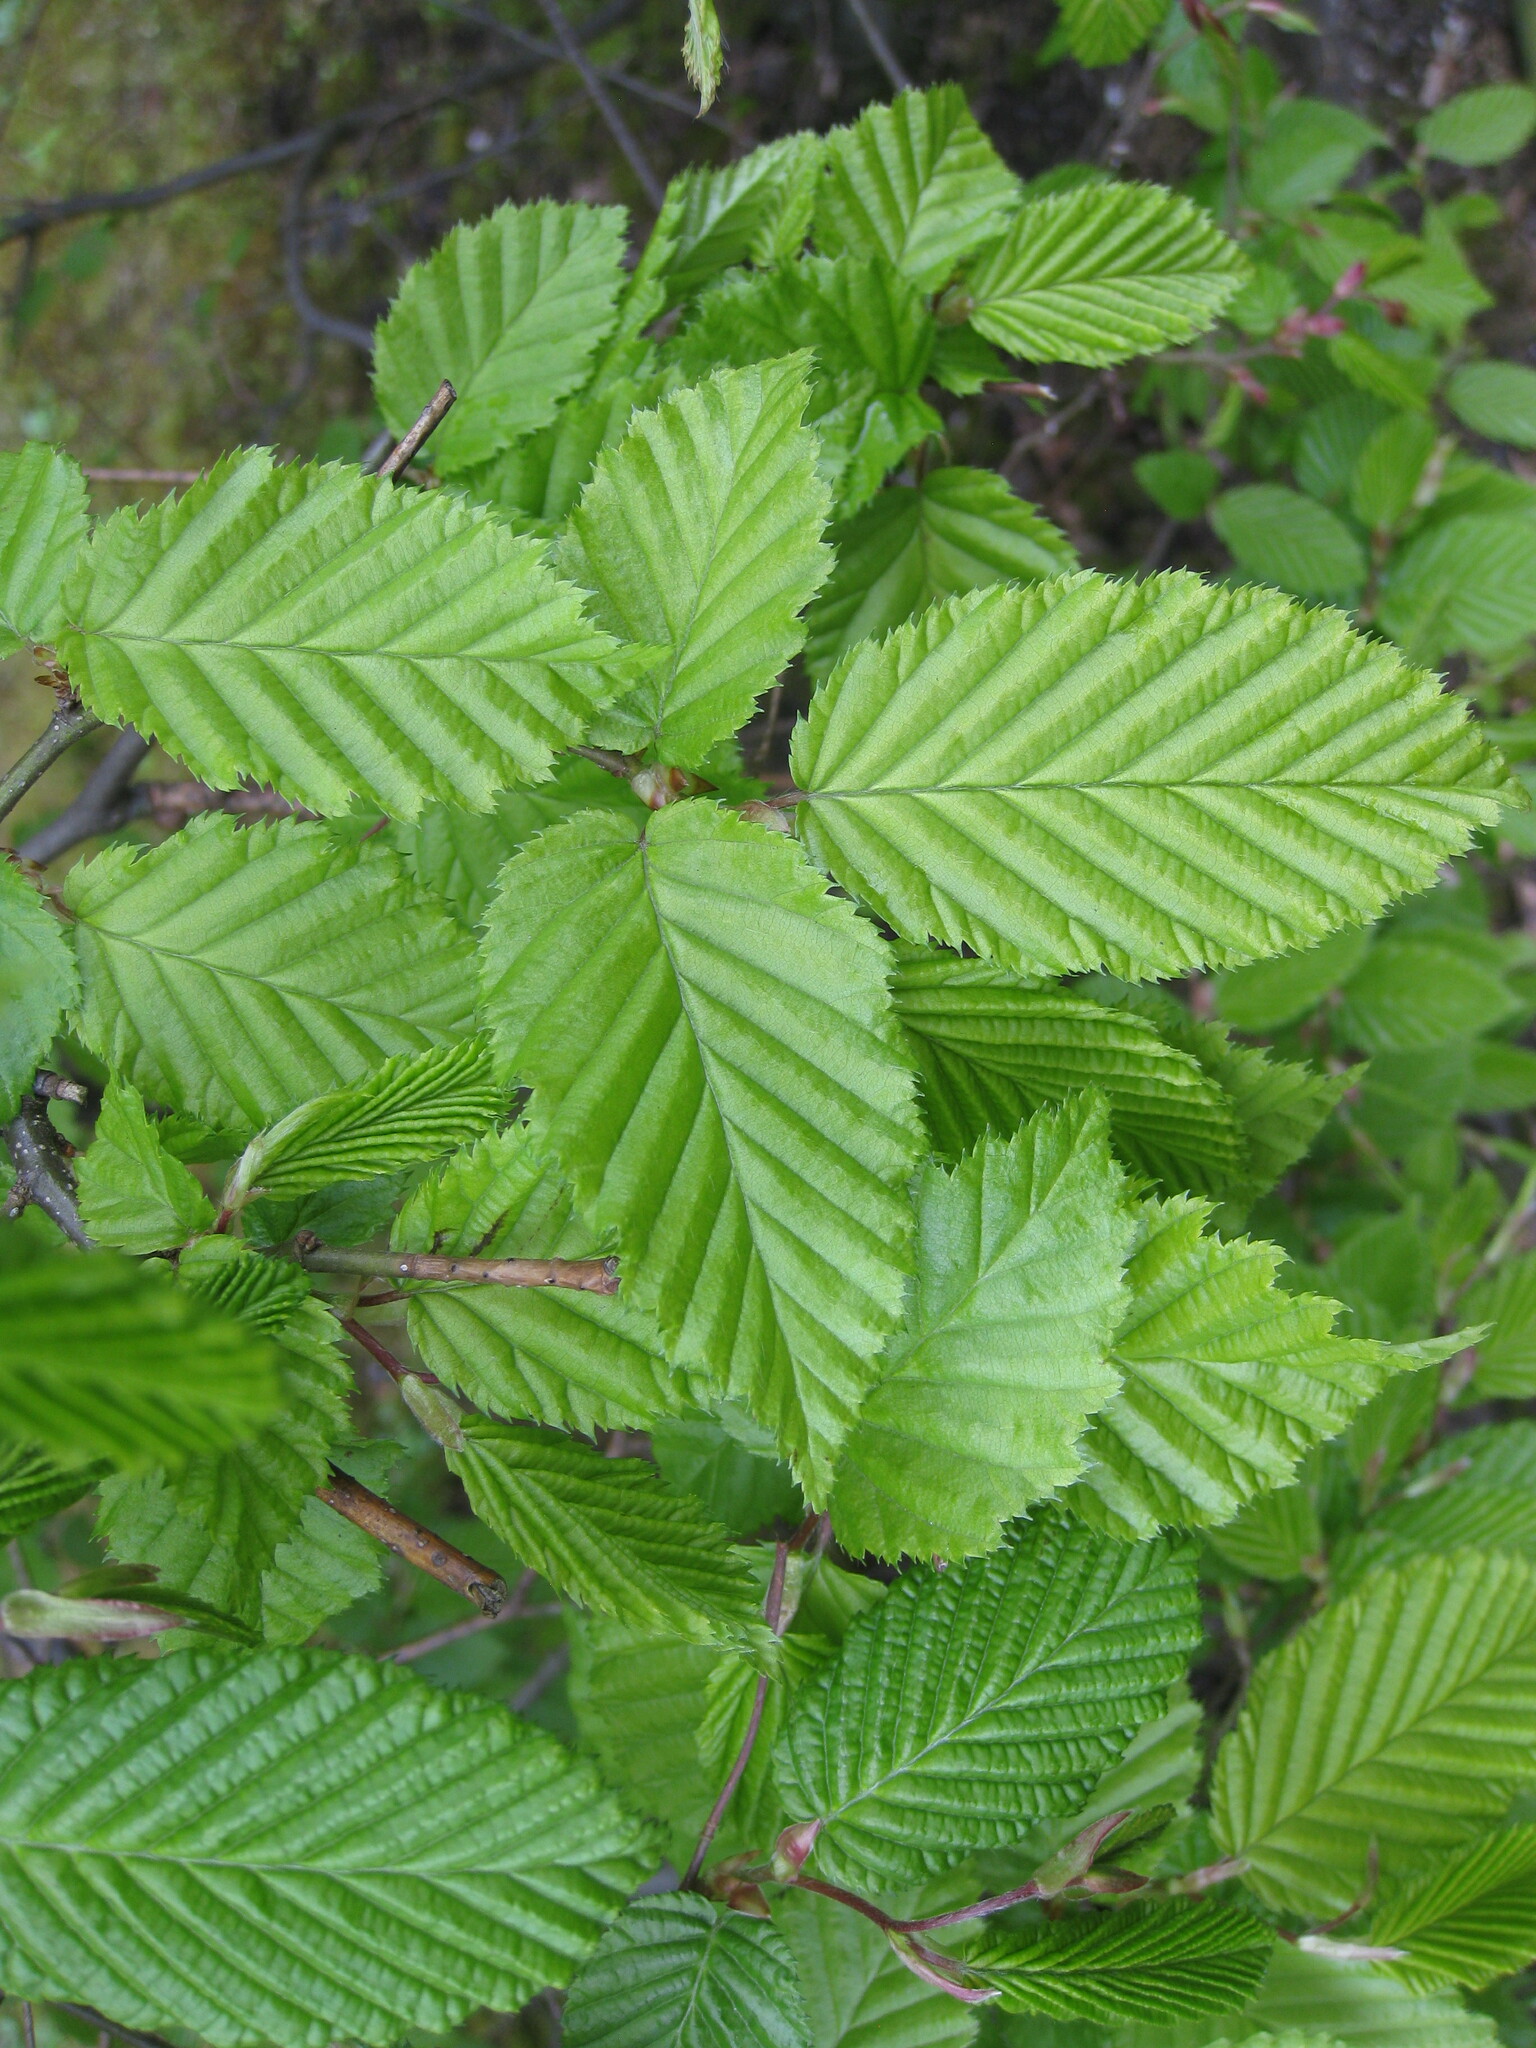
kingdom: Plantae
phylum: Tracheophyta
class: Magnoliopsida
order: Fagales
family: Betulaceae
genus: Carpinus
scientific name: Carpinus betulus
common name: Hornbeam
